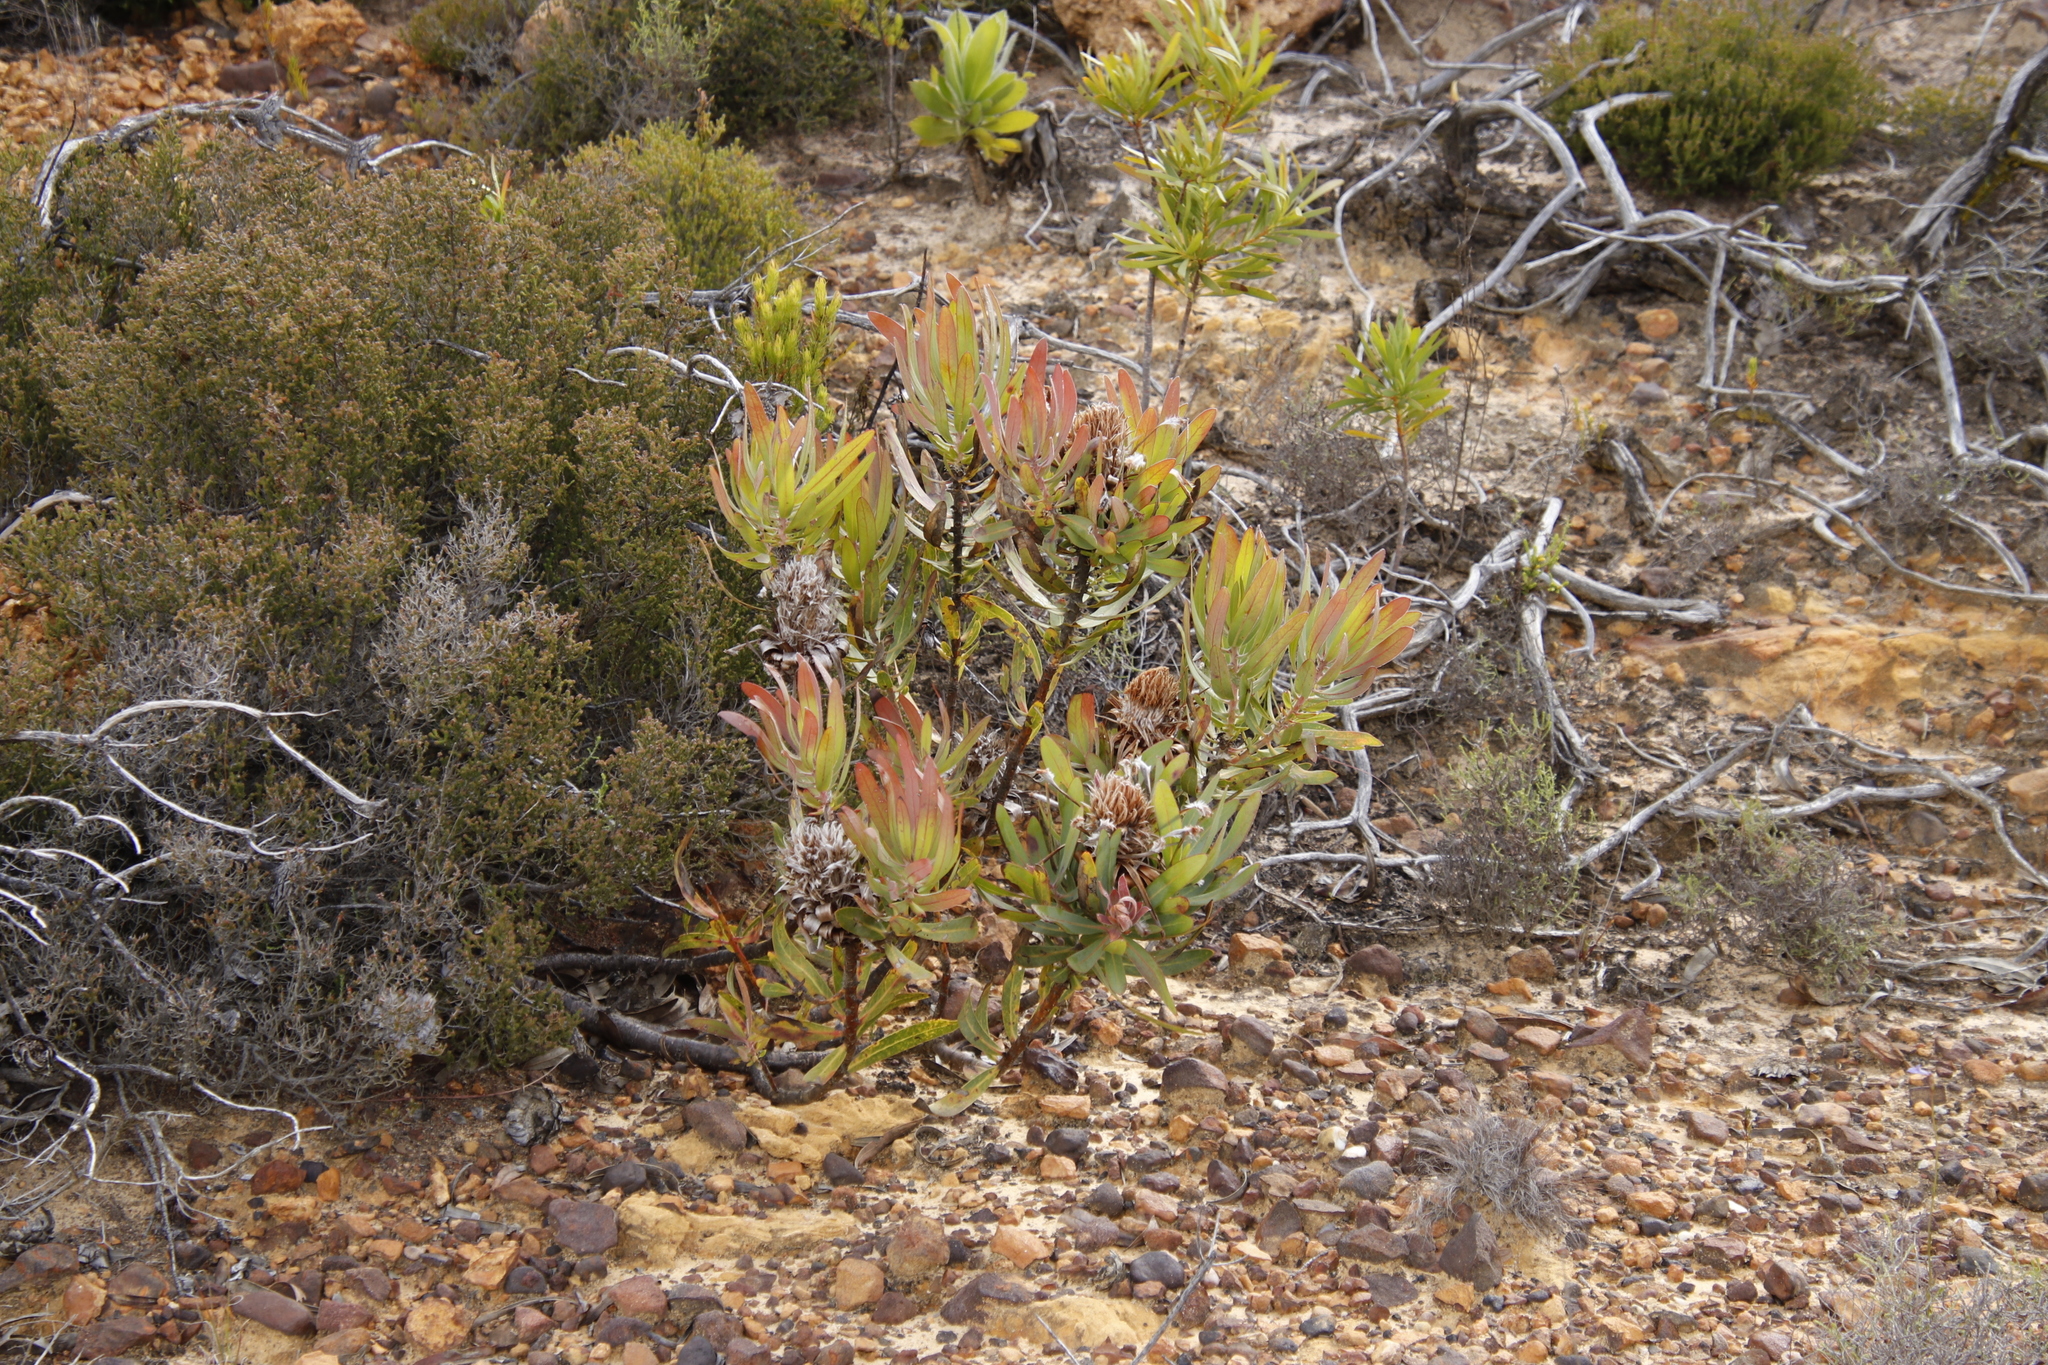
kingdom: Plantae
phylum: Tracheophyta
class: Magnoliopsida
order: Proteales
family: Proteaceae
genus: Protea
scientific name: Protea neriifolia
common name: Blue sugarbush
